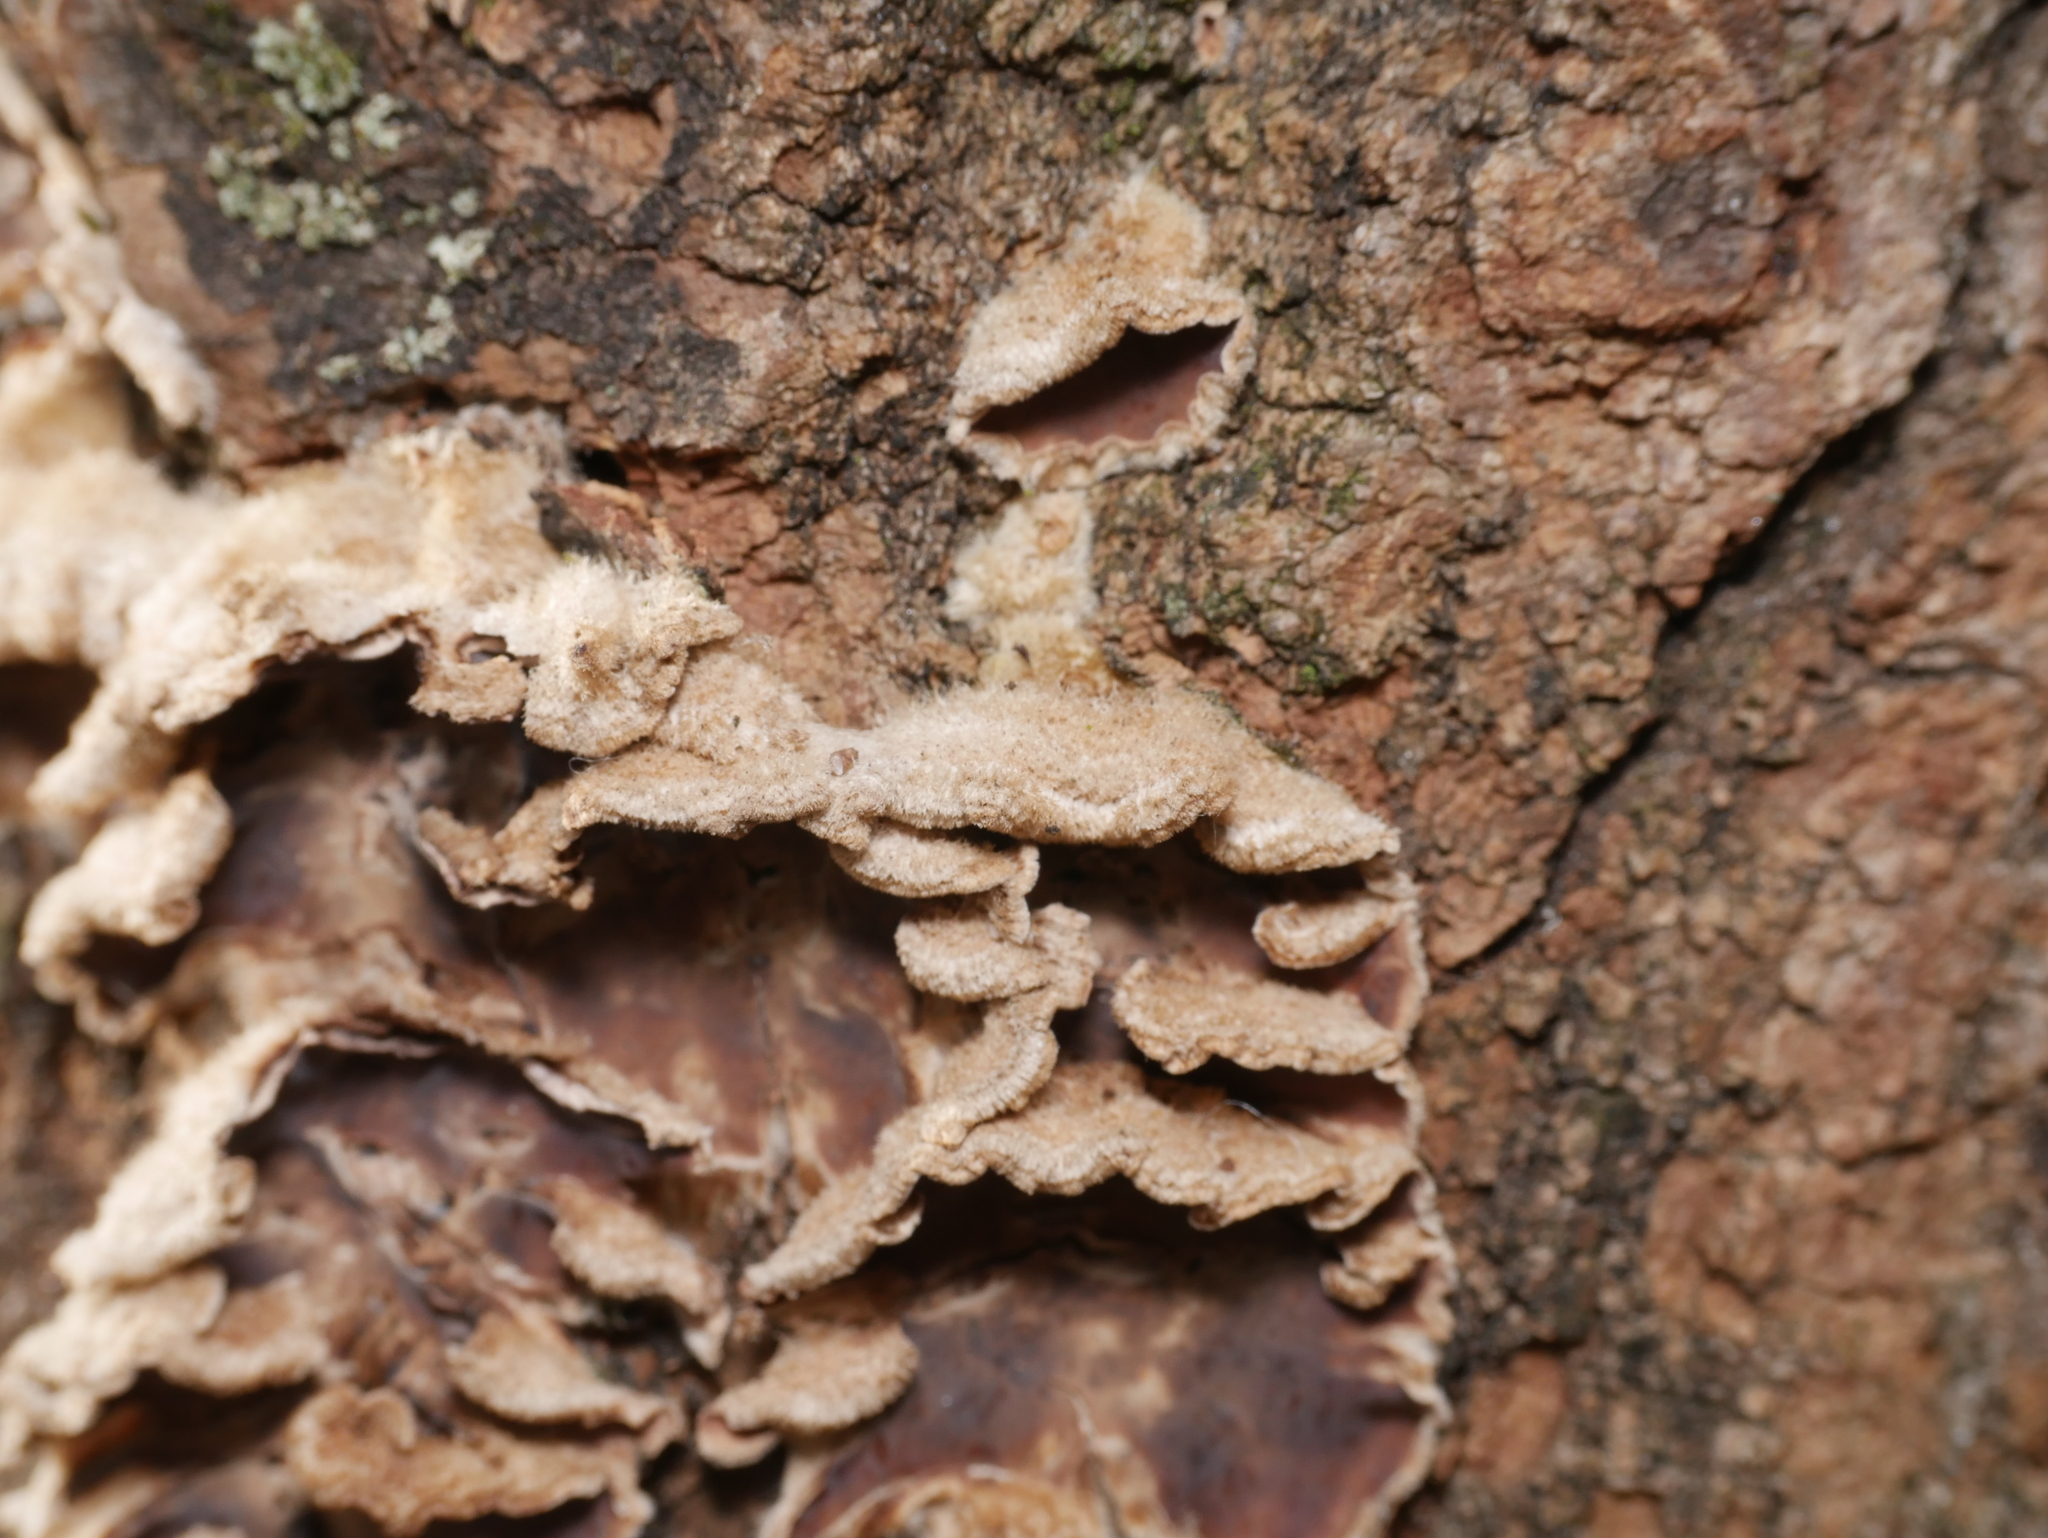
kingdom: Fungi
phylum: Basidiomycota
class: Agaricomycetes
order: Agaricales
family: Cyphellaceae
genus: Chondrostereum
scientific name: Chondrostereum purpureum
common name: Silver leaf disease
